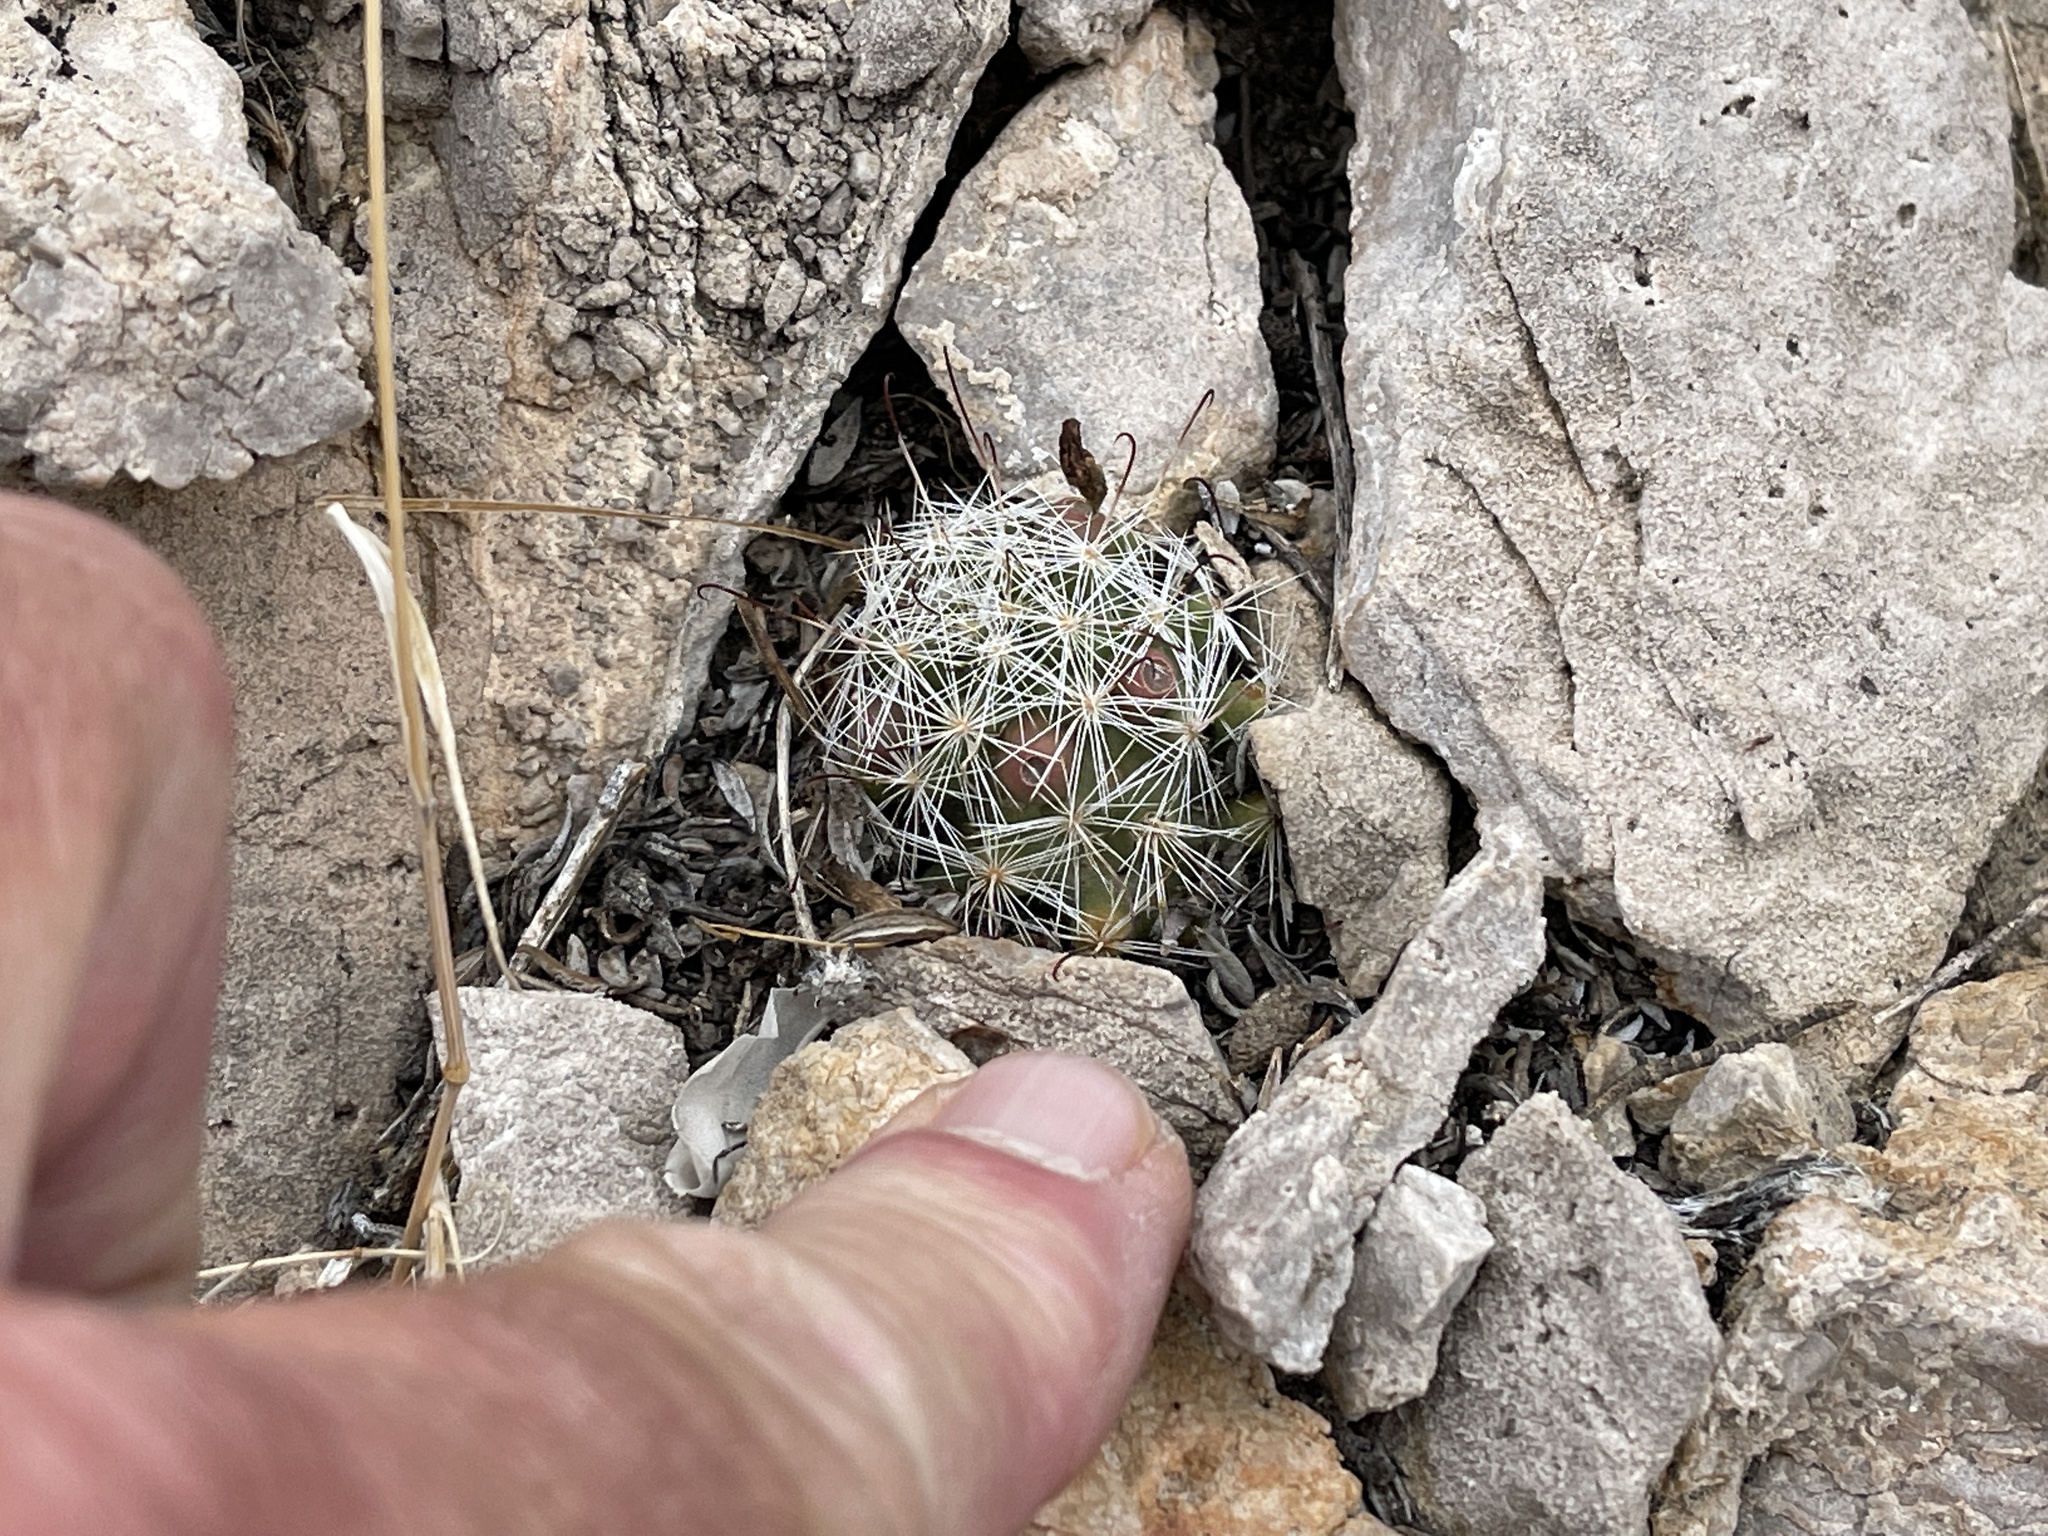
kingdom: Plantae
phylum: Tracheophyta
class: Magnoliopsida
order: Caryophyllales
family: Cactaceae
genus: Cochemiea
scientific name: Cochemiea tetrancistra
